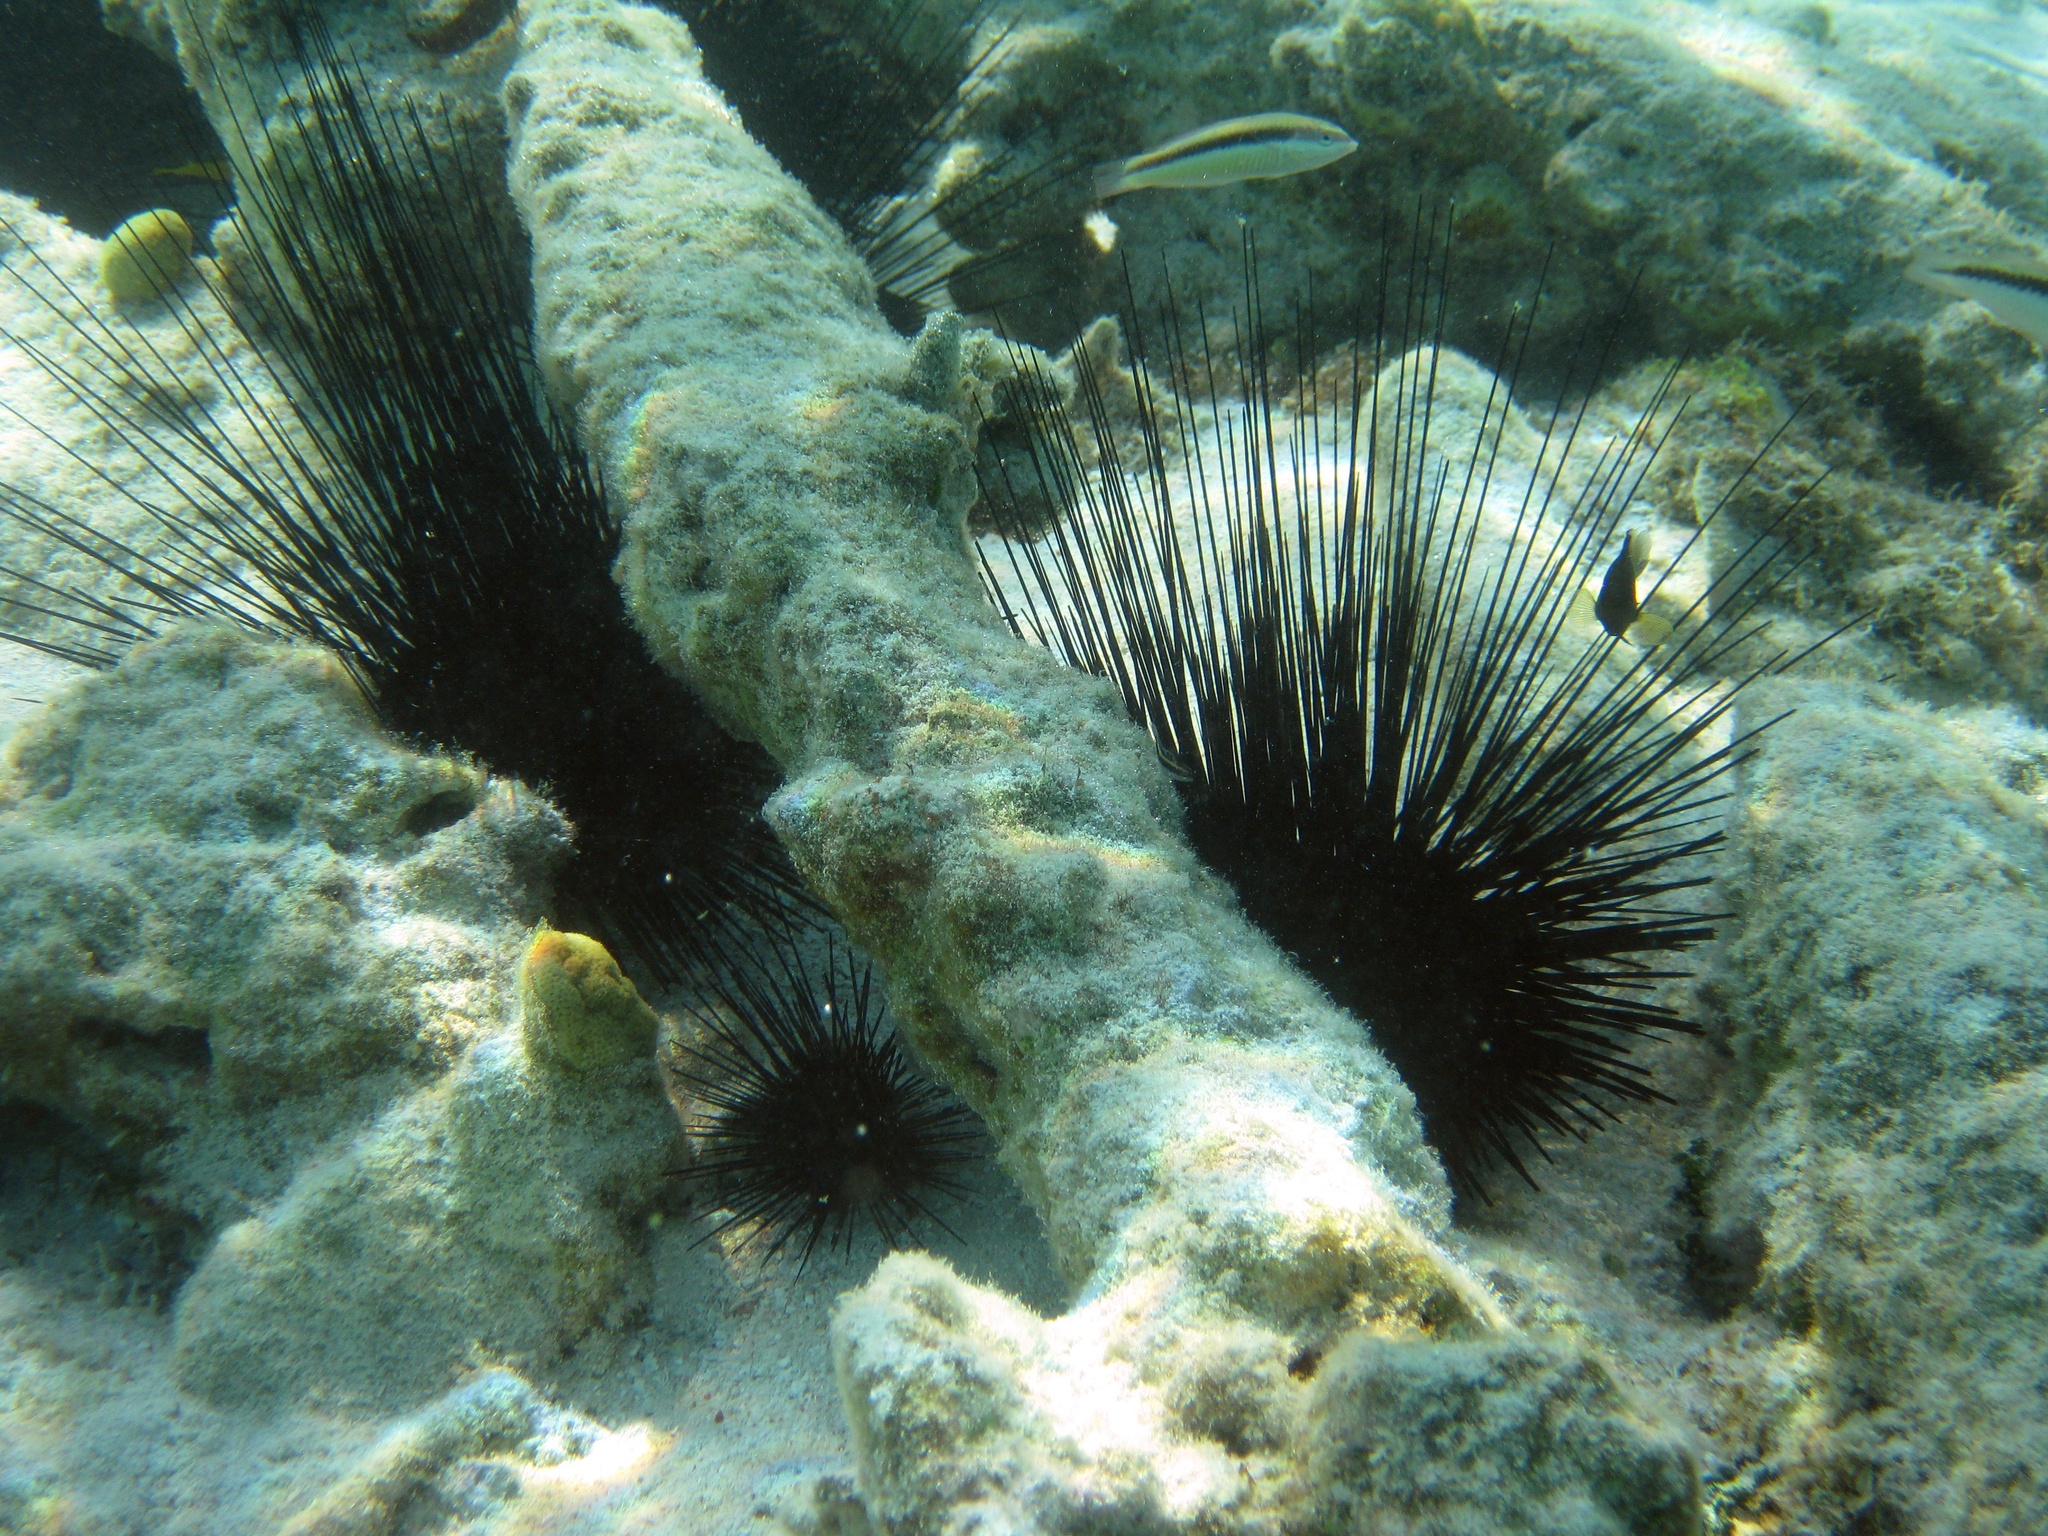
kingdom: Animalia
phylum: Echinodermata
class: Echinoidea
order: Diadematoida
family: Diadematidae
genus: Diadema
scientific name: Diadema antillarum
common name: Spiny urchin
